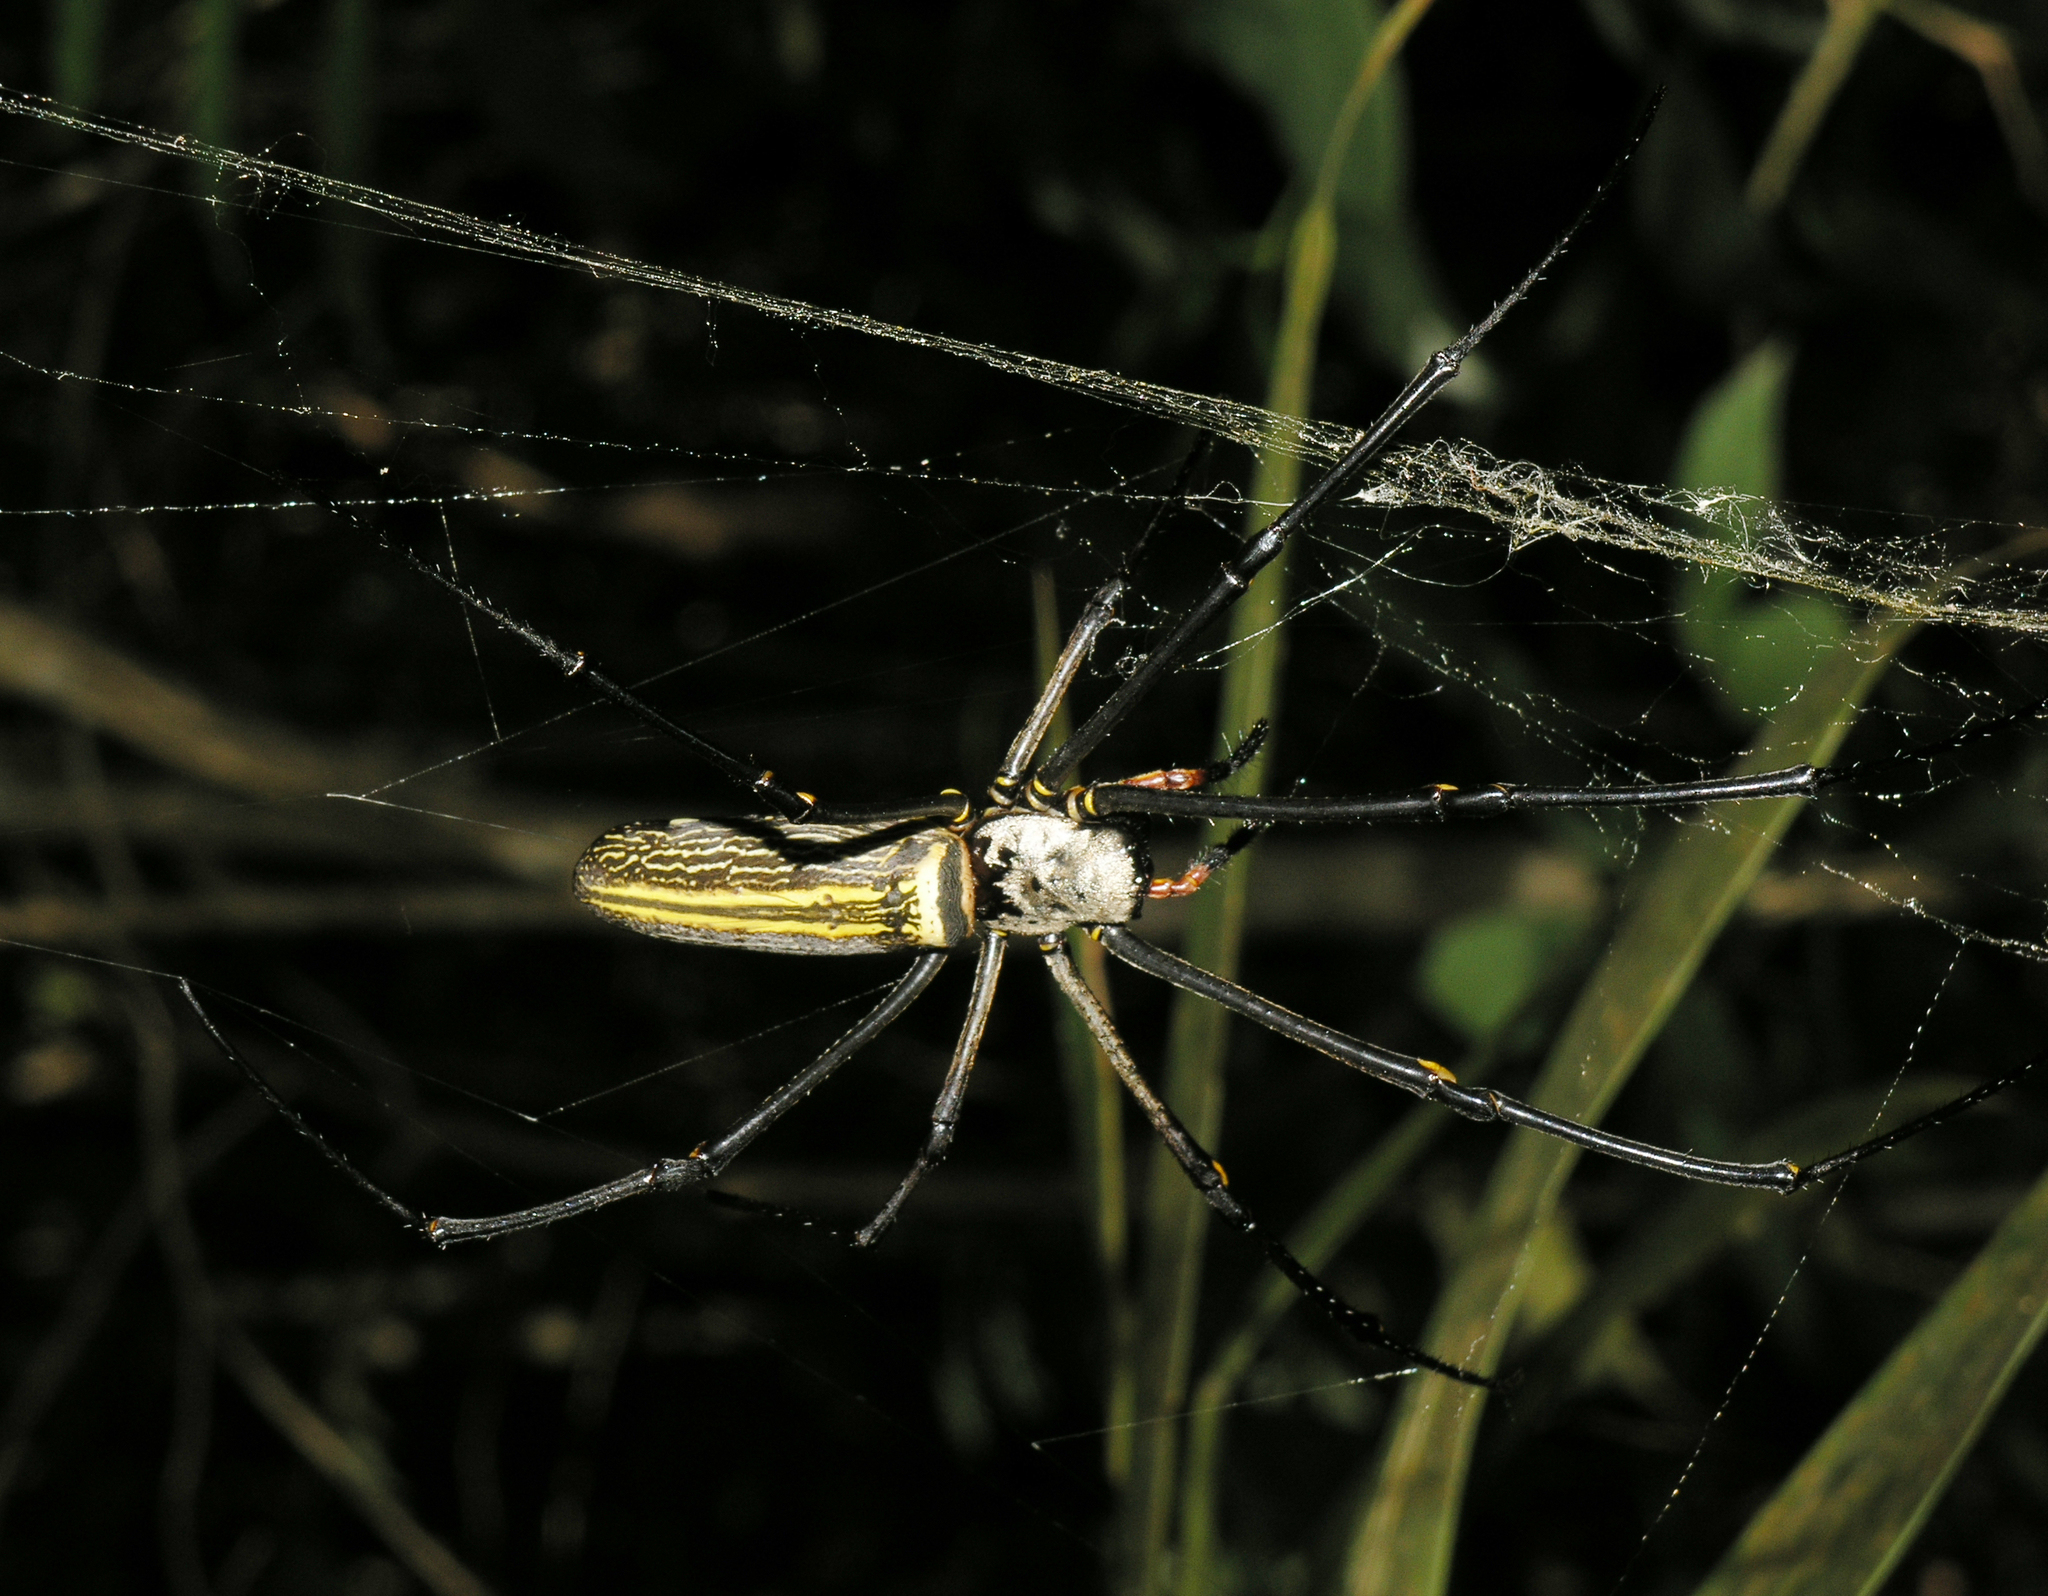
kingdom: Animalia
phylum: Arthropoda
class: Arachnida
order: Araneae
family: Araneidae
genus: Nephila
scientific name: Nephila pilipes
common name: Giant golden orb weaver
